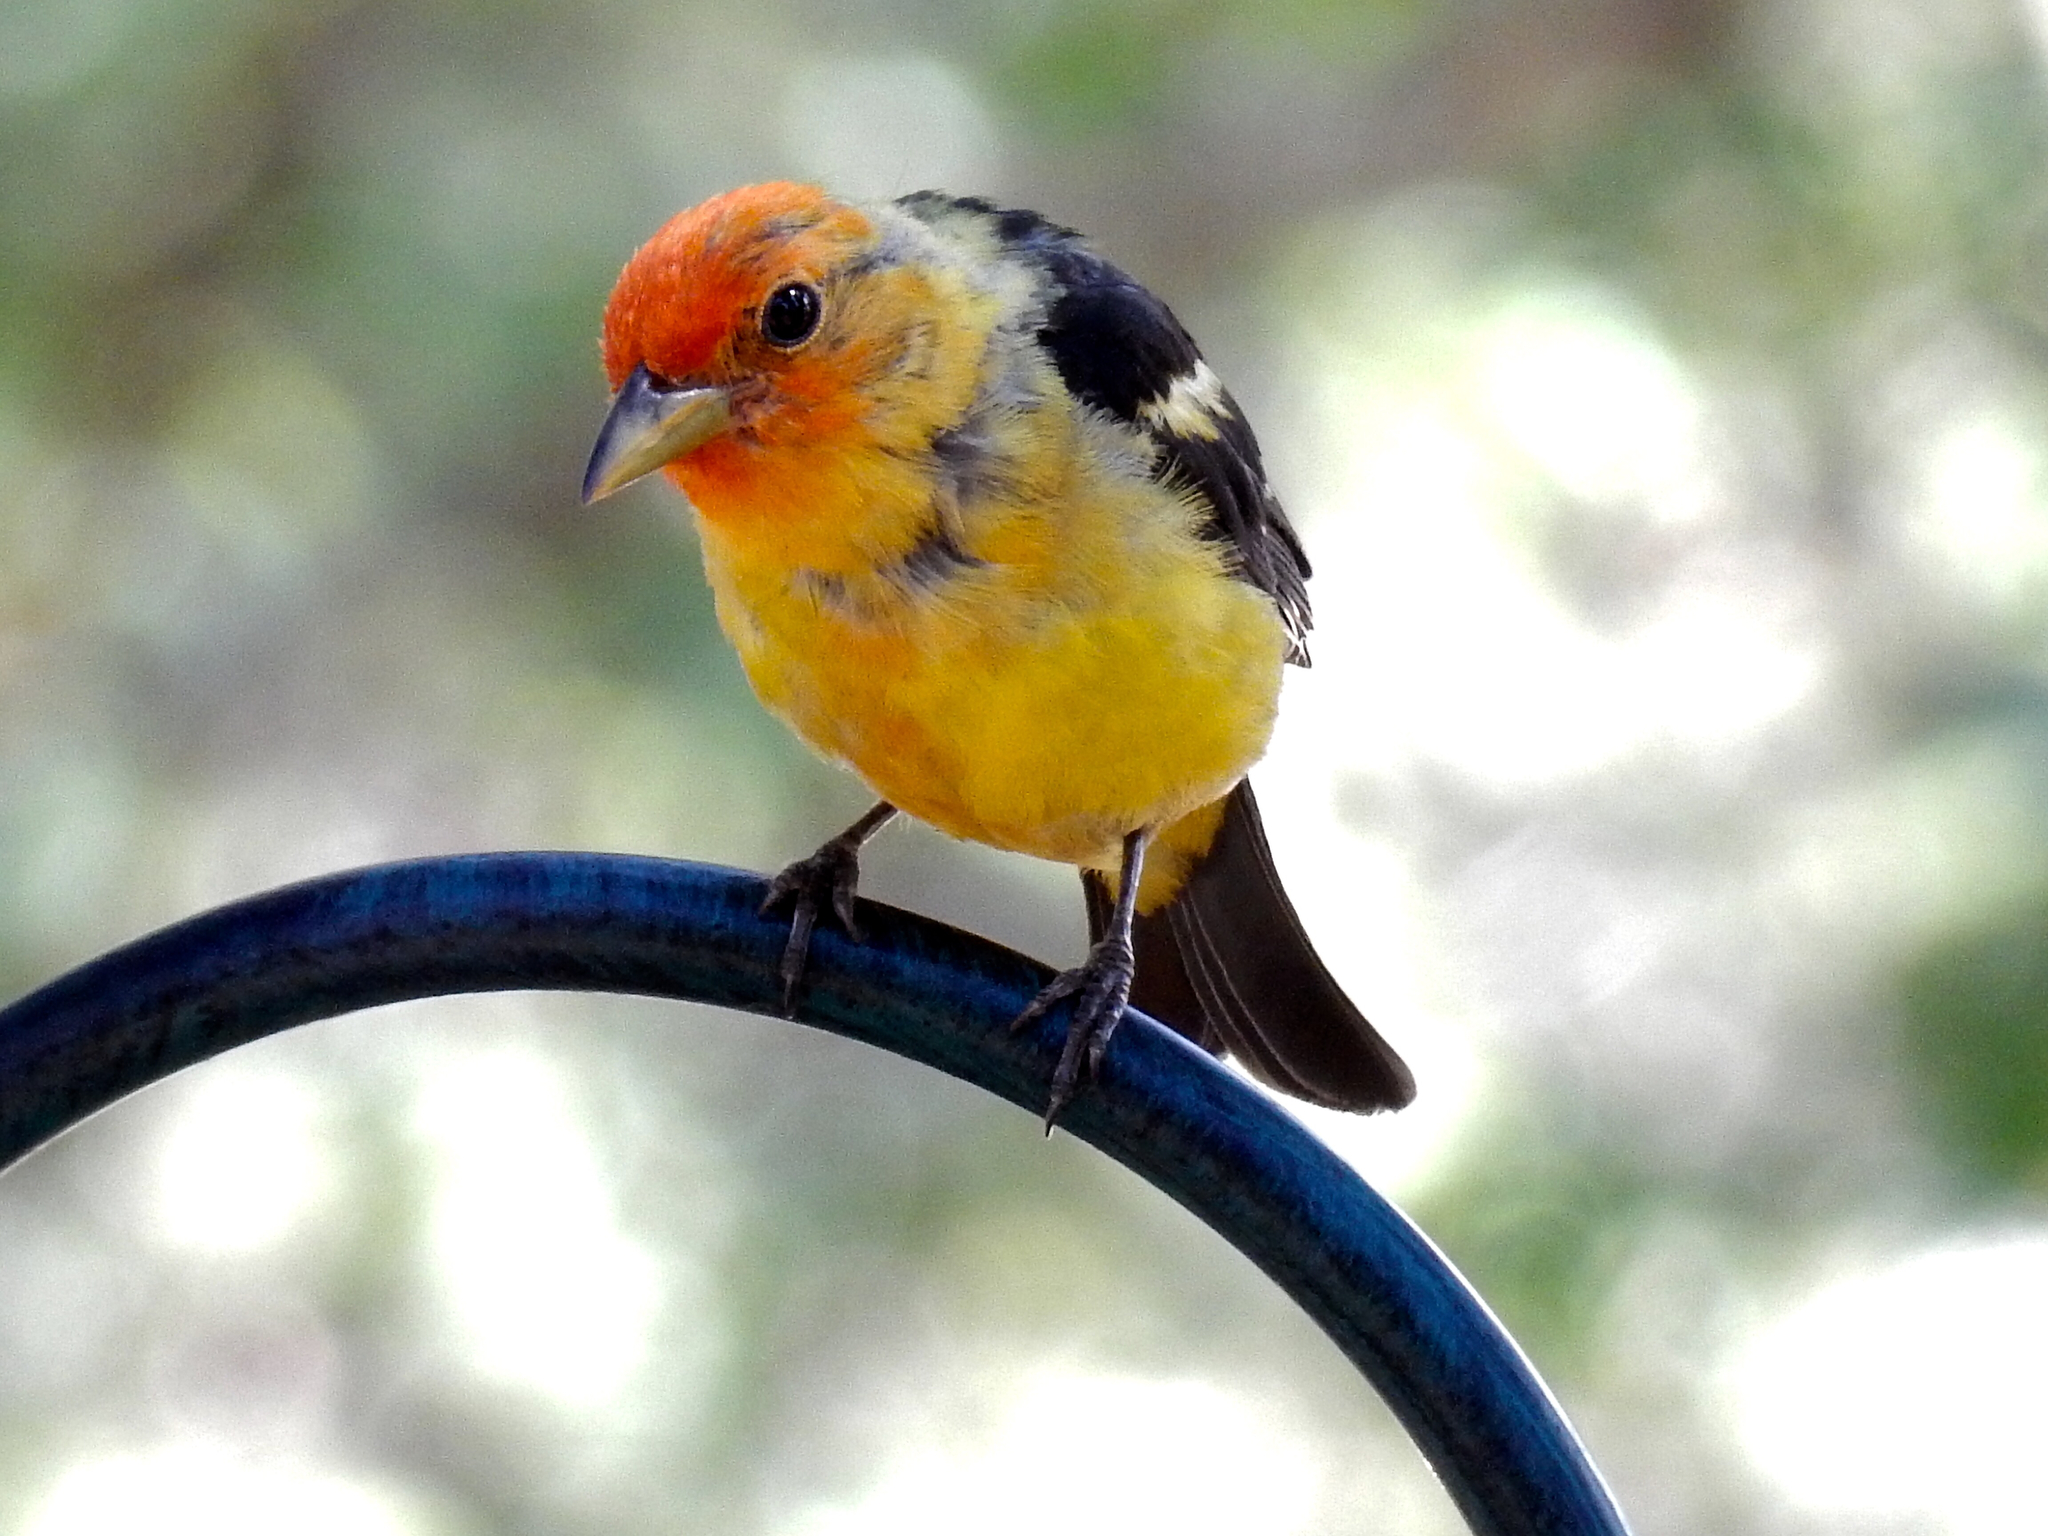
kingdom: Animalia
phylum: Chordata
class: Aves
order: Passeriformes
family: Cardinalidae
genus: Piranga
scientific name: Piranga ludoviciana
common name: Western tanager
